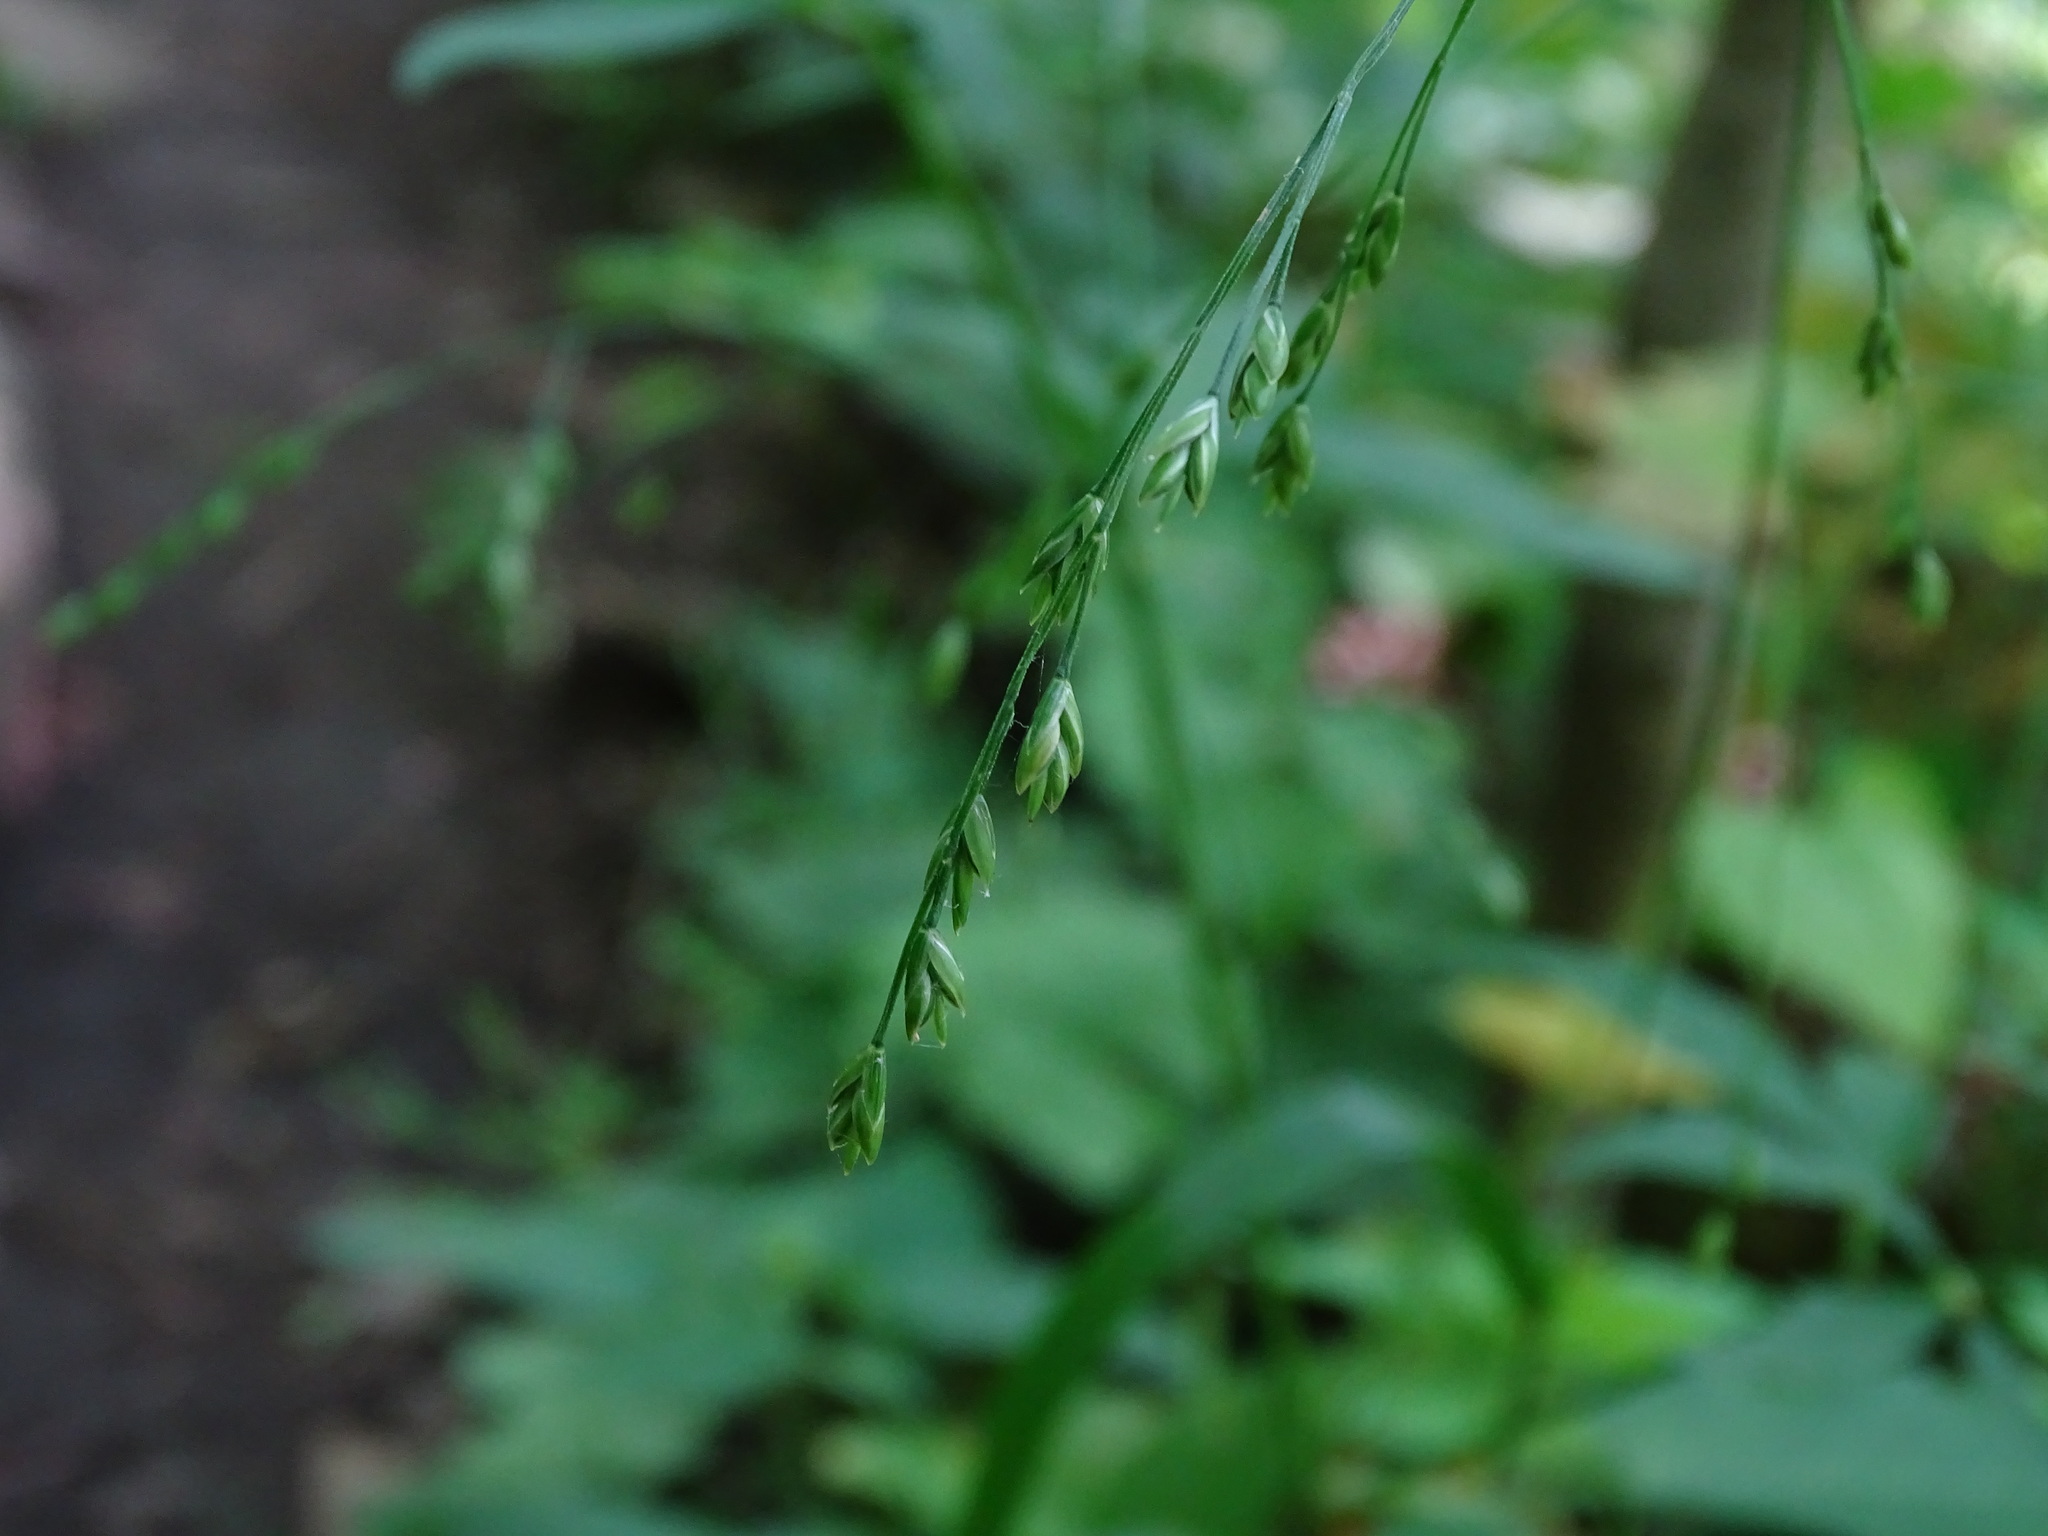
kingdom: Plantae
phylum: Tracheophyta
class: Liliopsida
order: Poales
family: Poaceae
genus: Festuca
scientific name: Festuca subverticillata
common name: Nodding fescue
